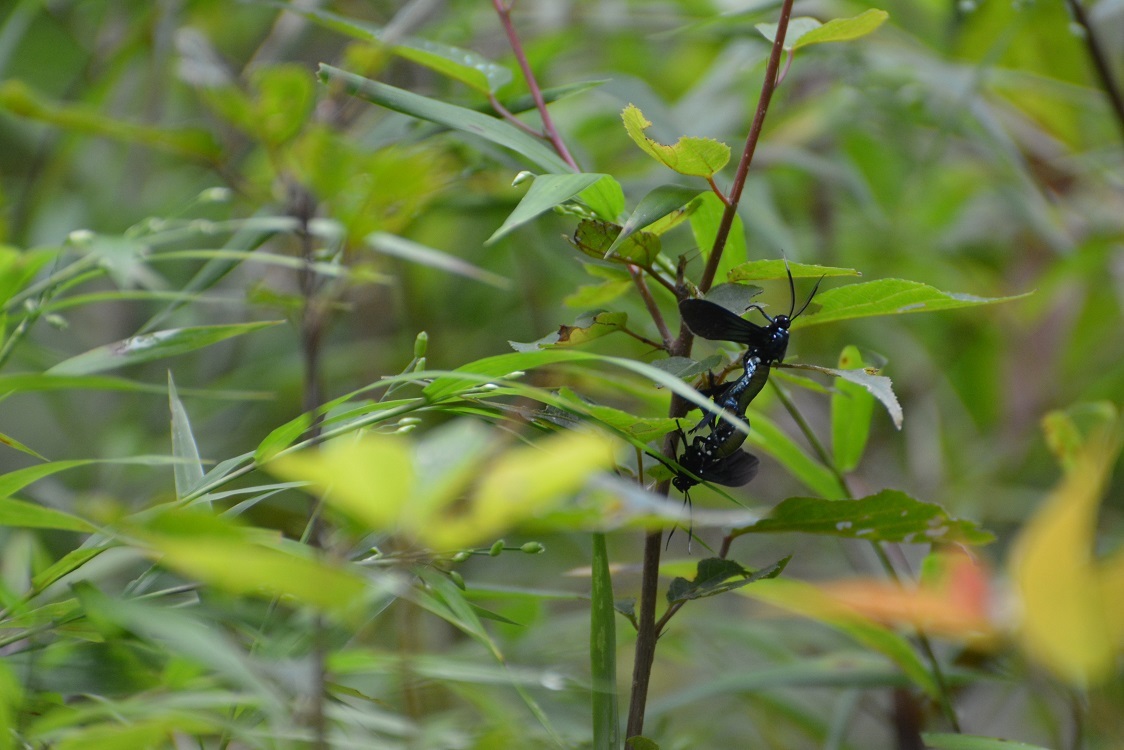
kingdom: Animalia
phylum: Arthropoda
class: Insecta
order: Lepidoptera
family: Erebidae
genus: Macrocneme
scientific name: Macrocneme chrysitis
